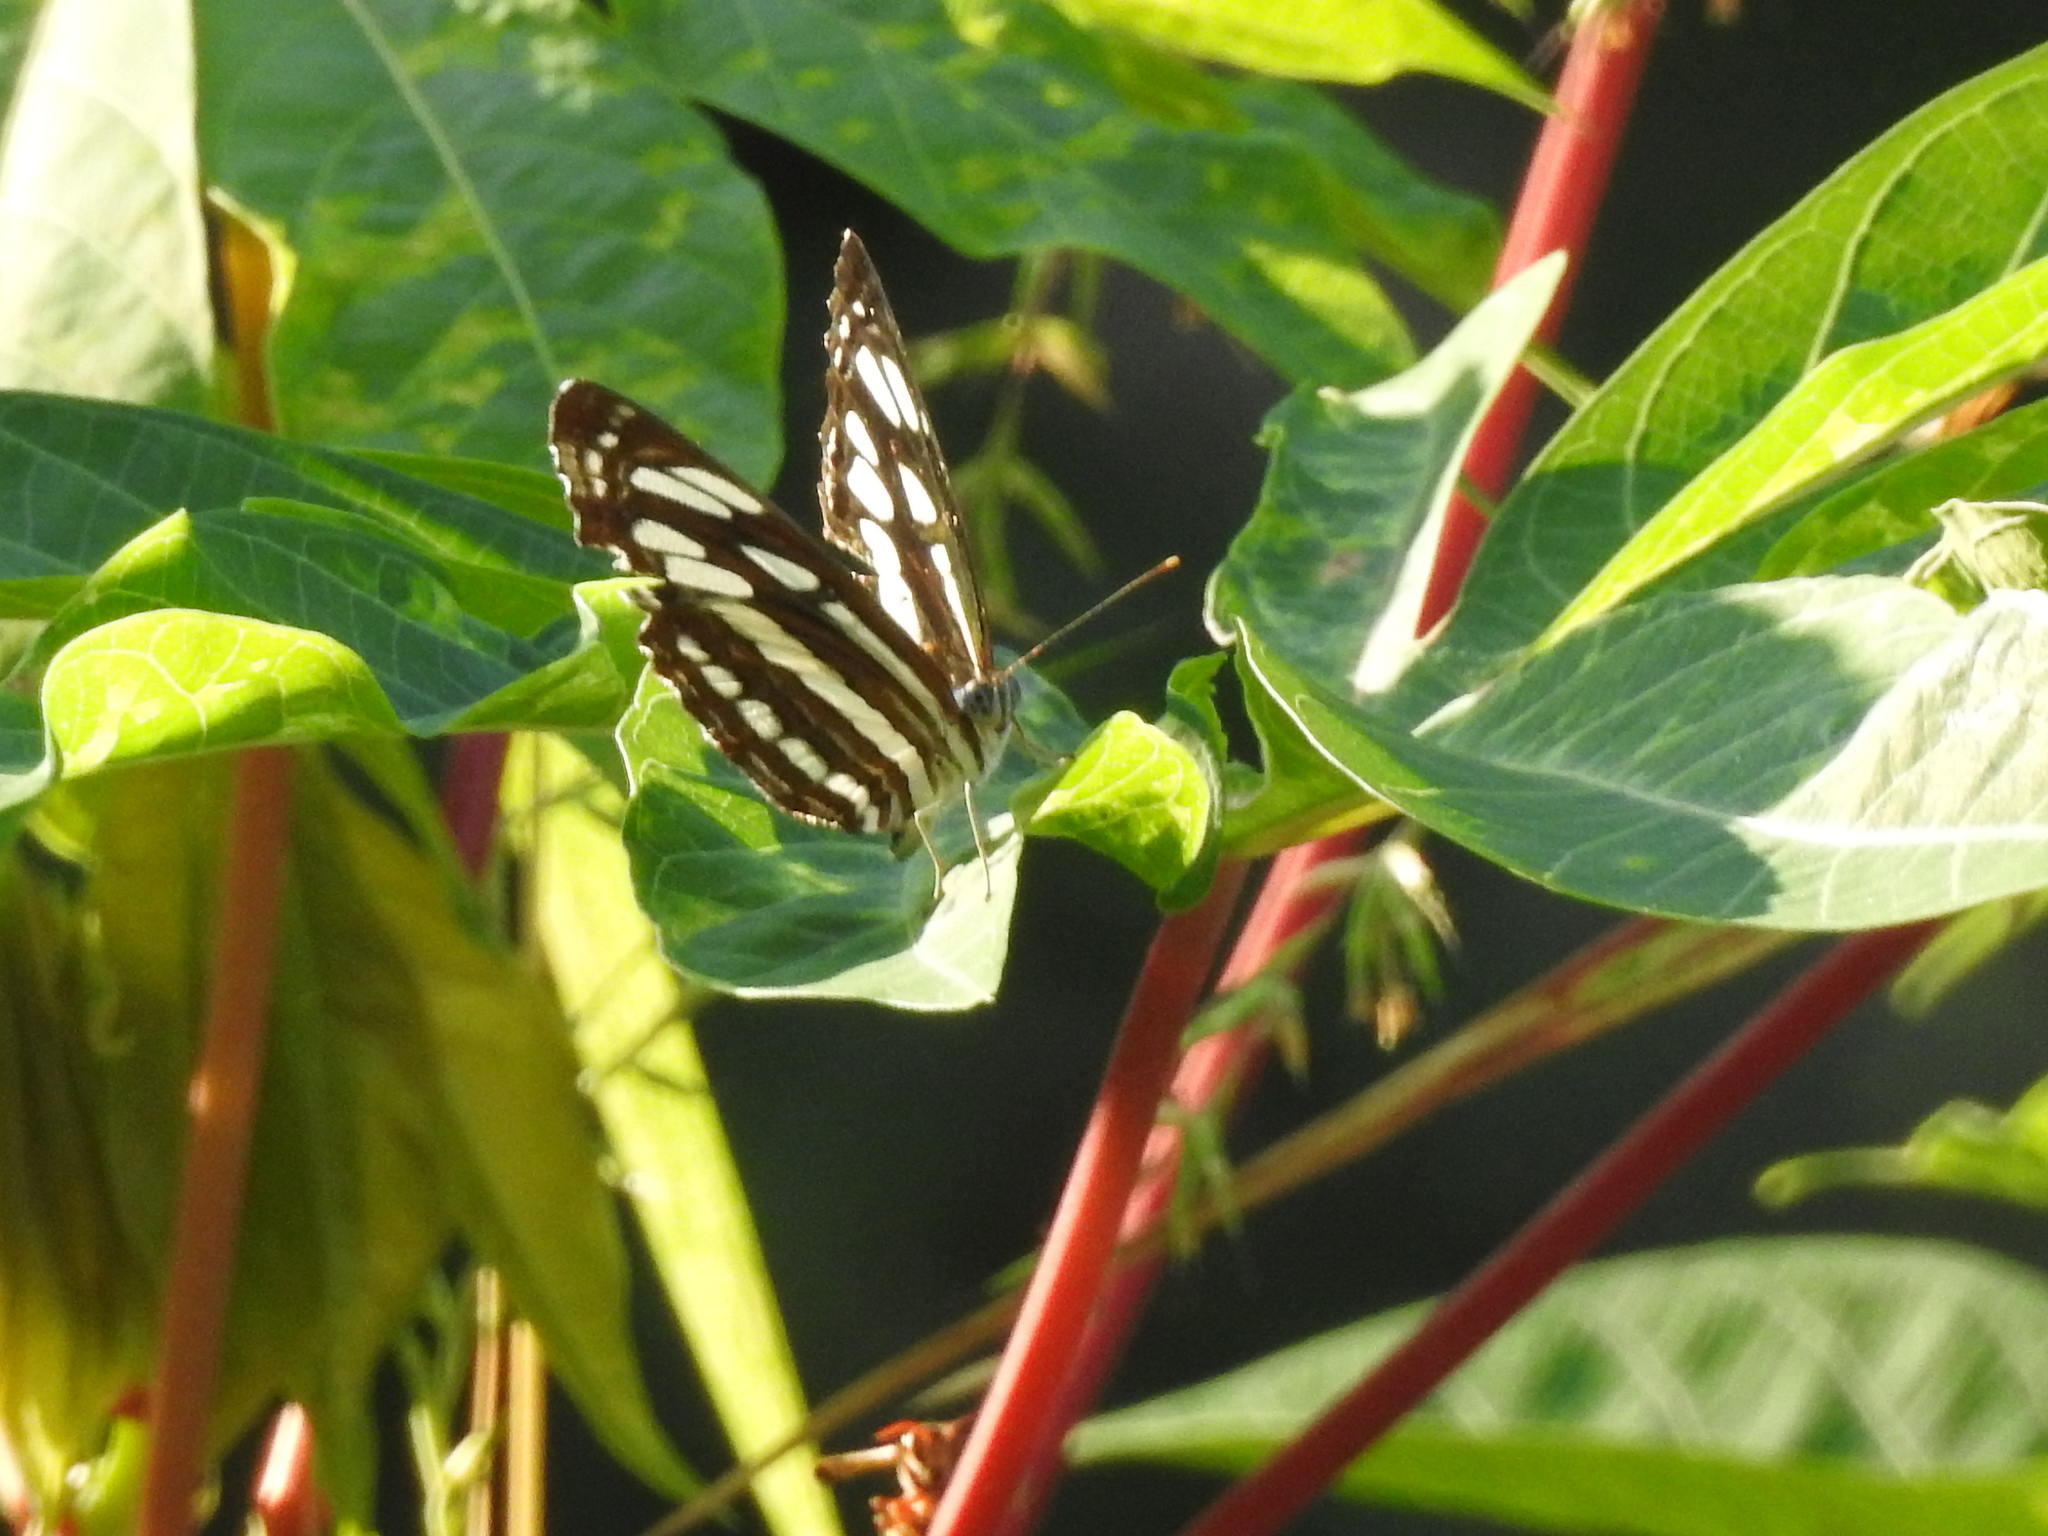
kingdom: Animalia
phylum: Arthropoda
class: Insecta
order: Lepidoptera
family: Nymphalidae
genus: Neptis
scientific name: Neptis hylas
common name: Common sailer
